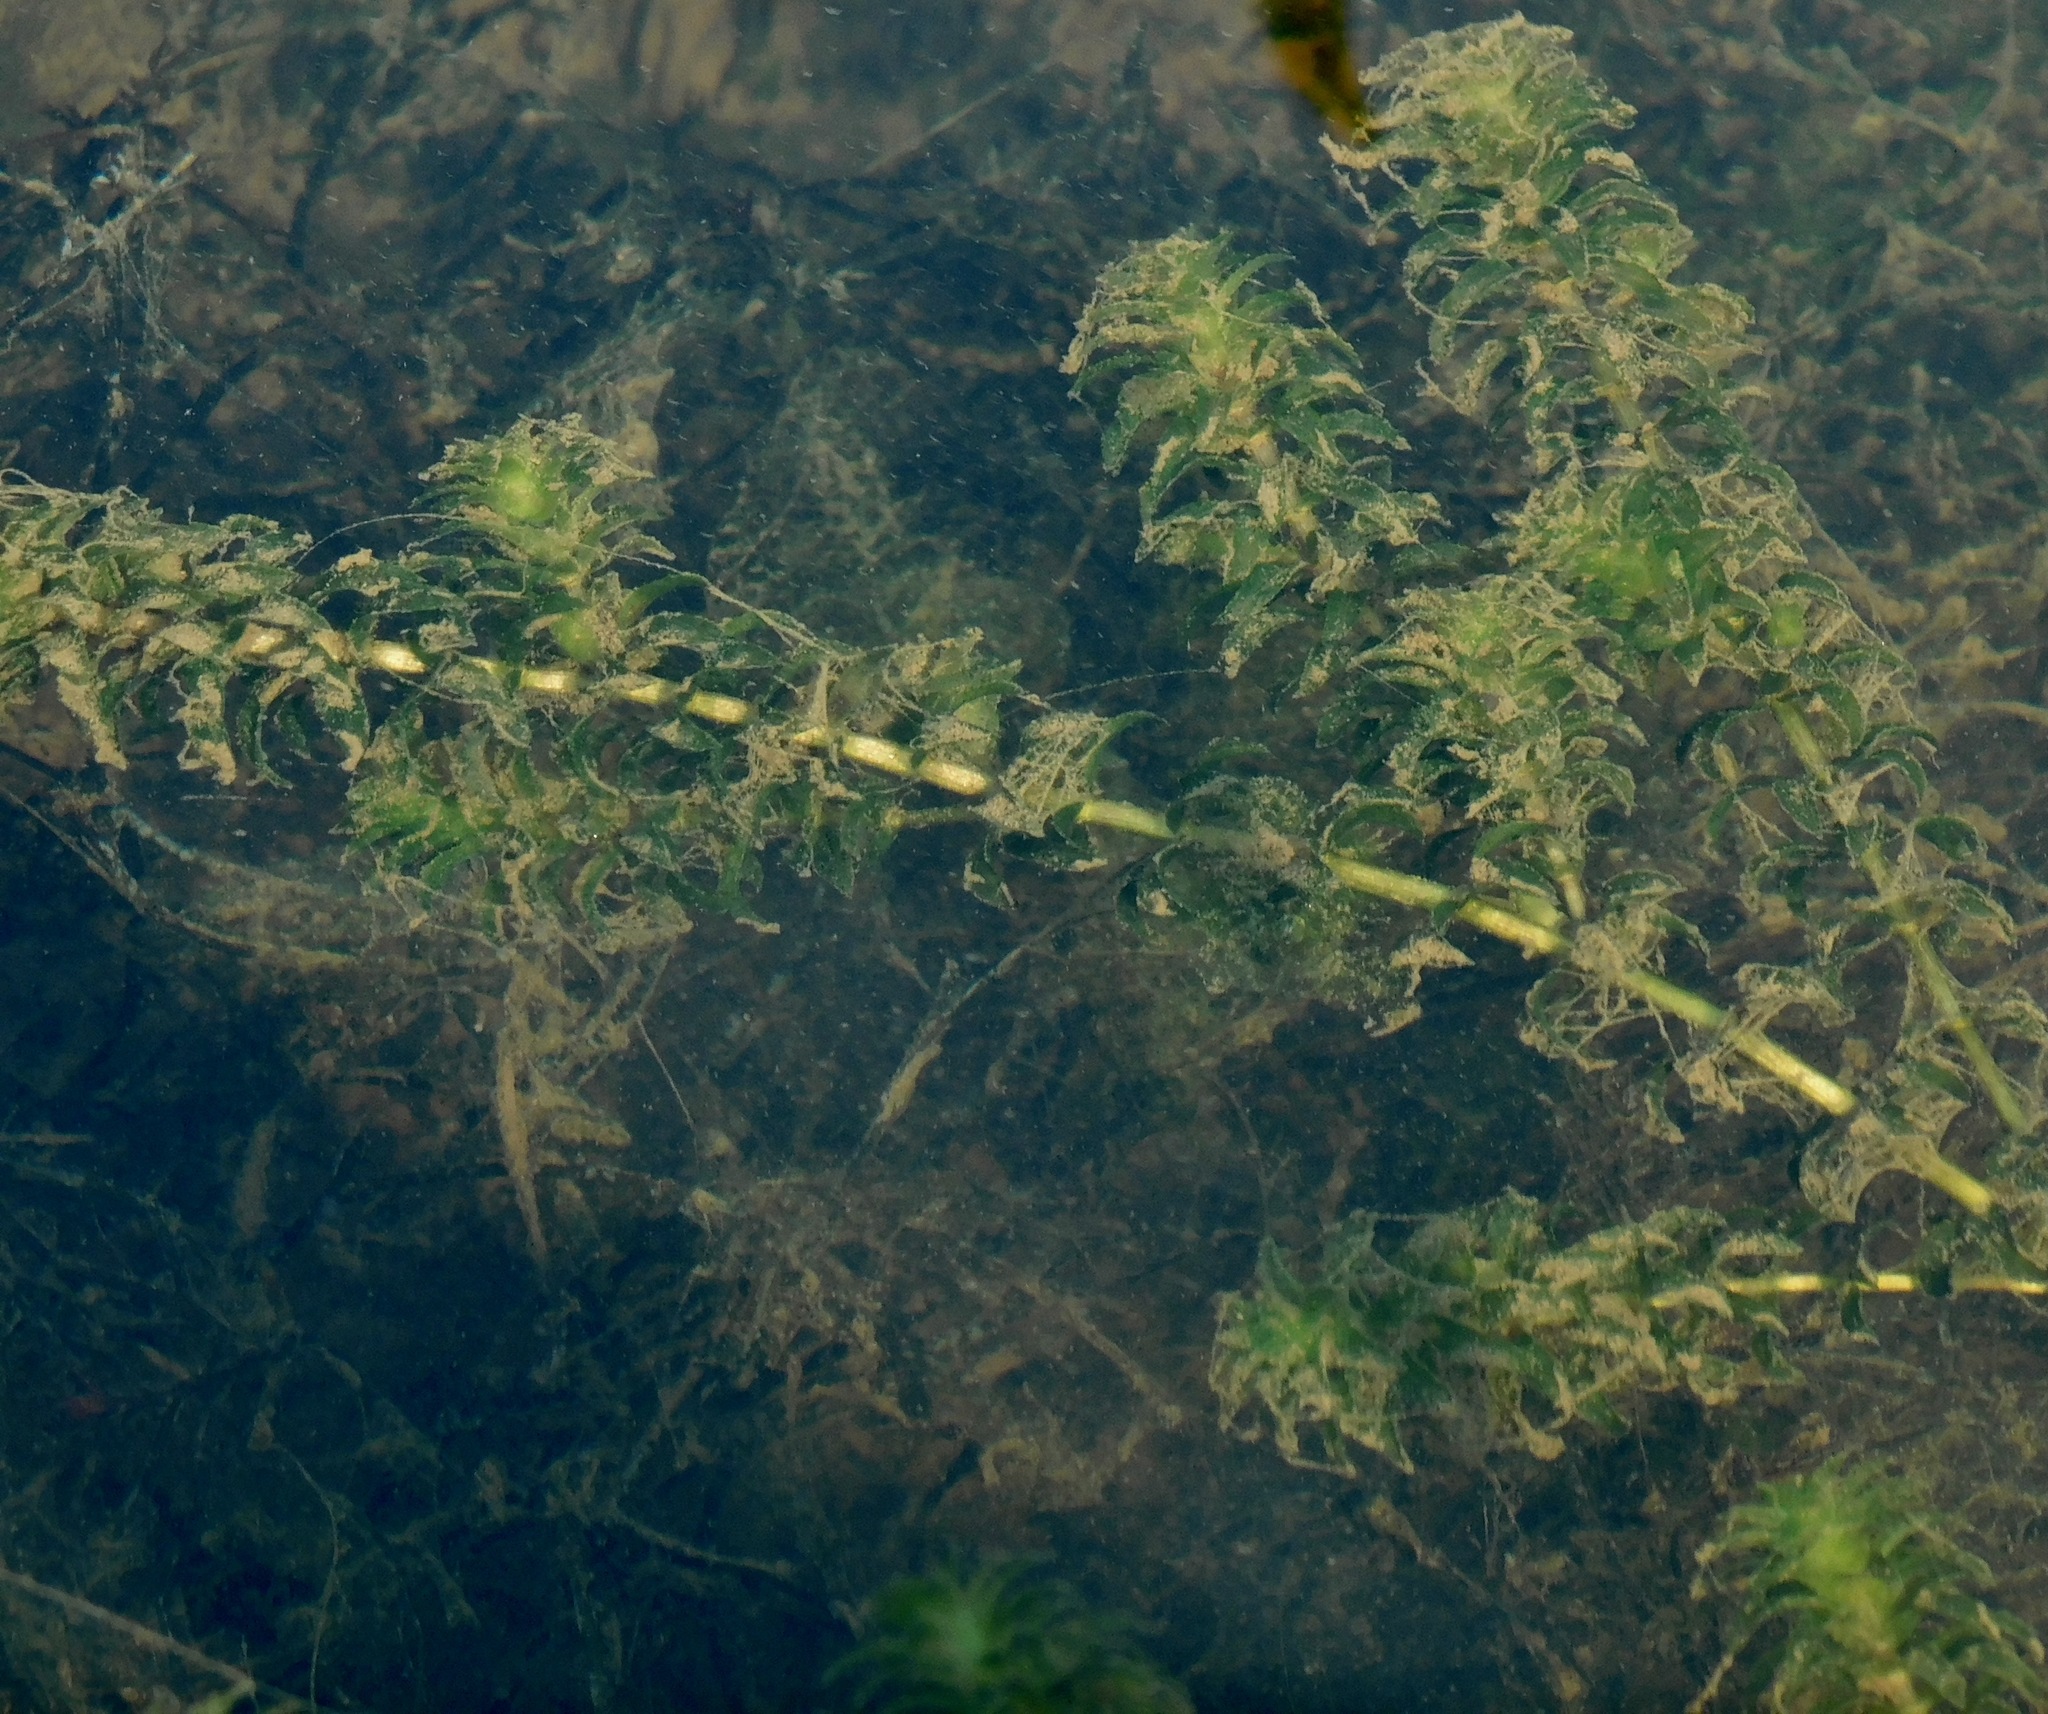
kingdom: Plantae
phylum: Tracheophyta
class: Liliopsida
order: Alismatales
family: Hydrocharitaceae
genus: Elodea
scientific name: Elodea canadensis
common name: Canadian waterweed
